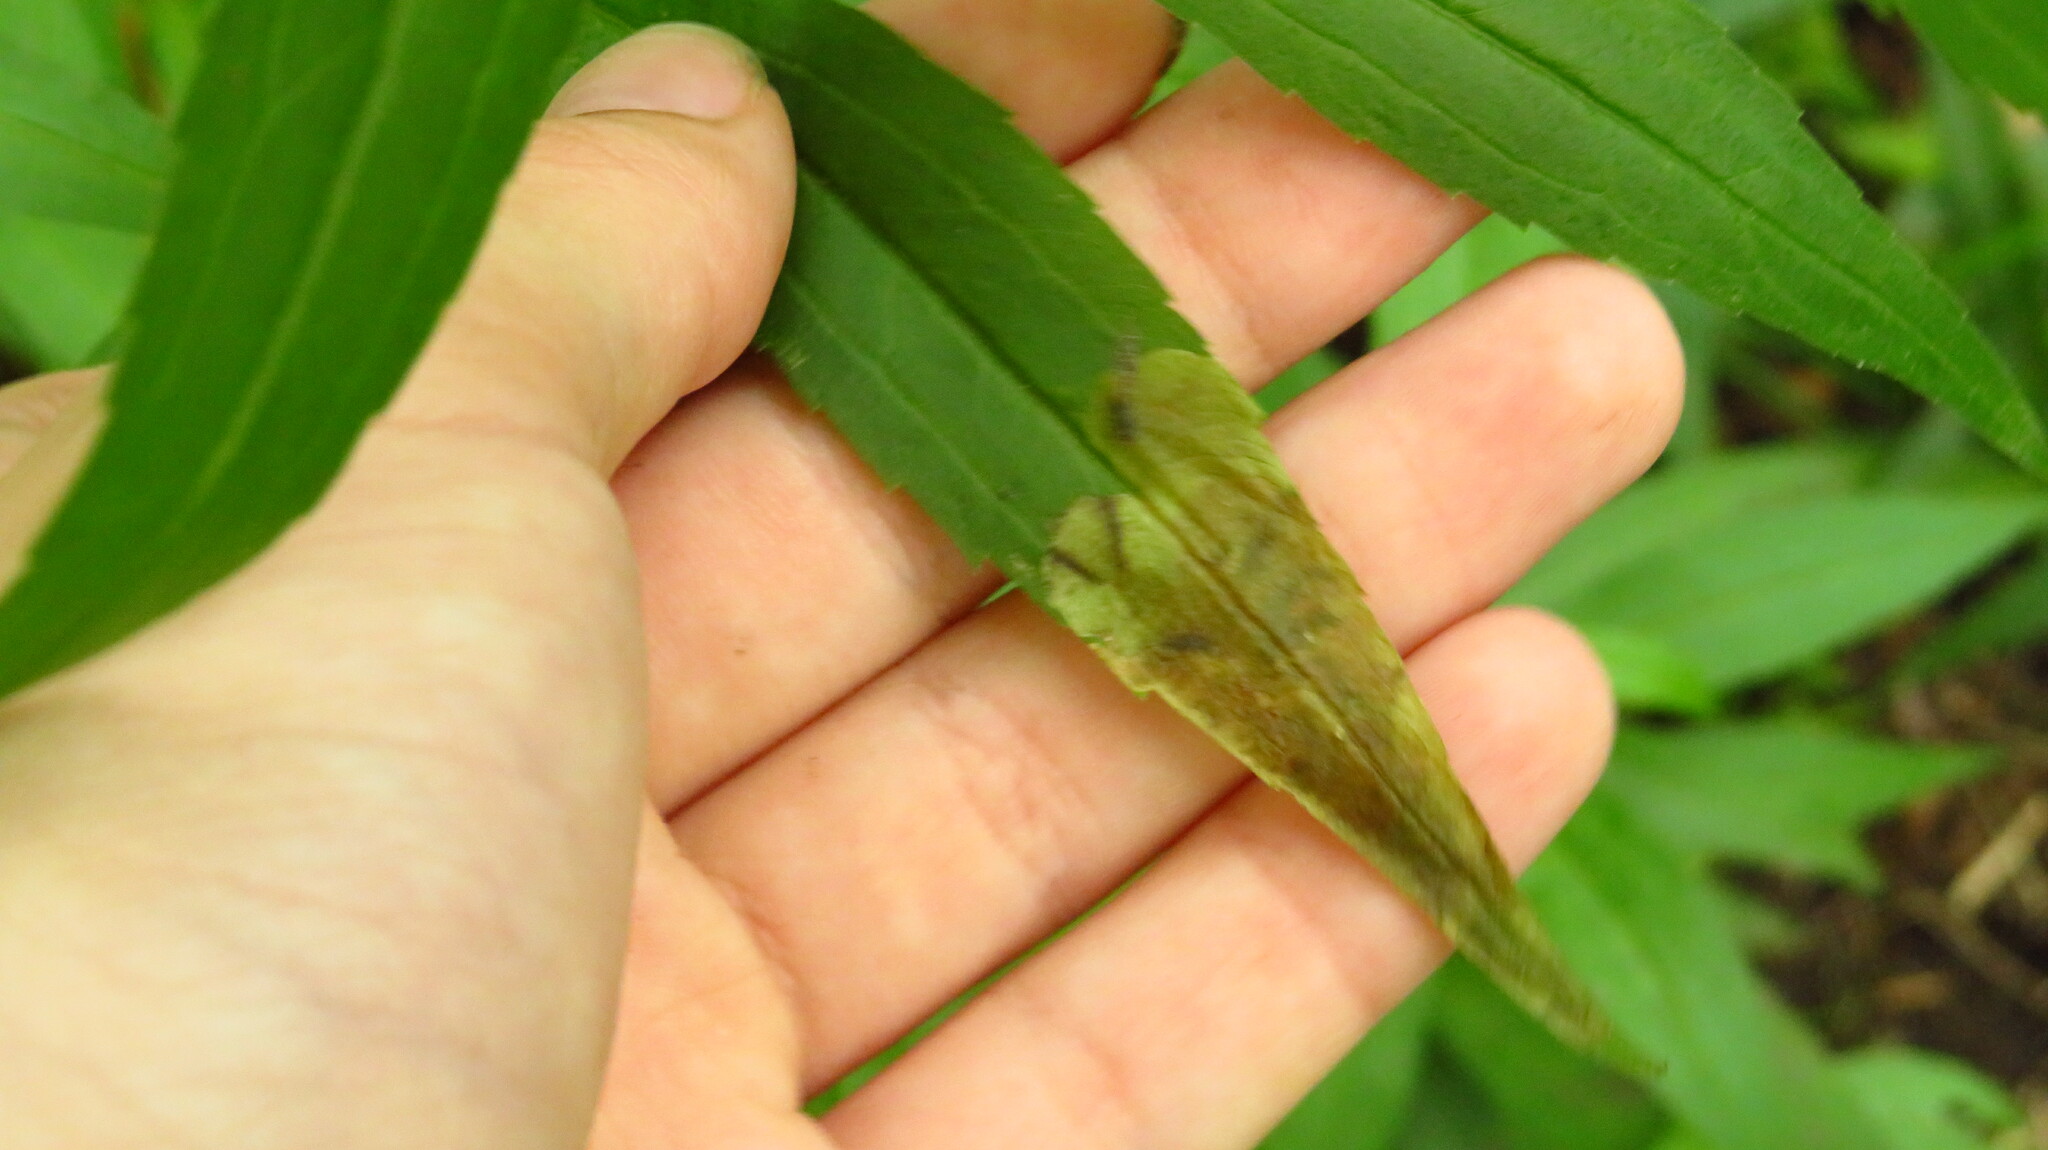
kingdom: Animalia
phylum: Arthropoda
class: Insecta
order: Diptera
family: Agromyzidae
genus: Nemorimyza
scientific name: Nemorimyza posticata
